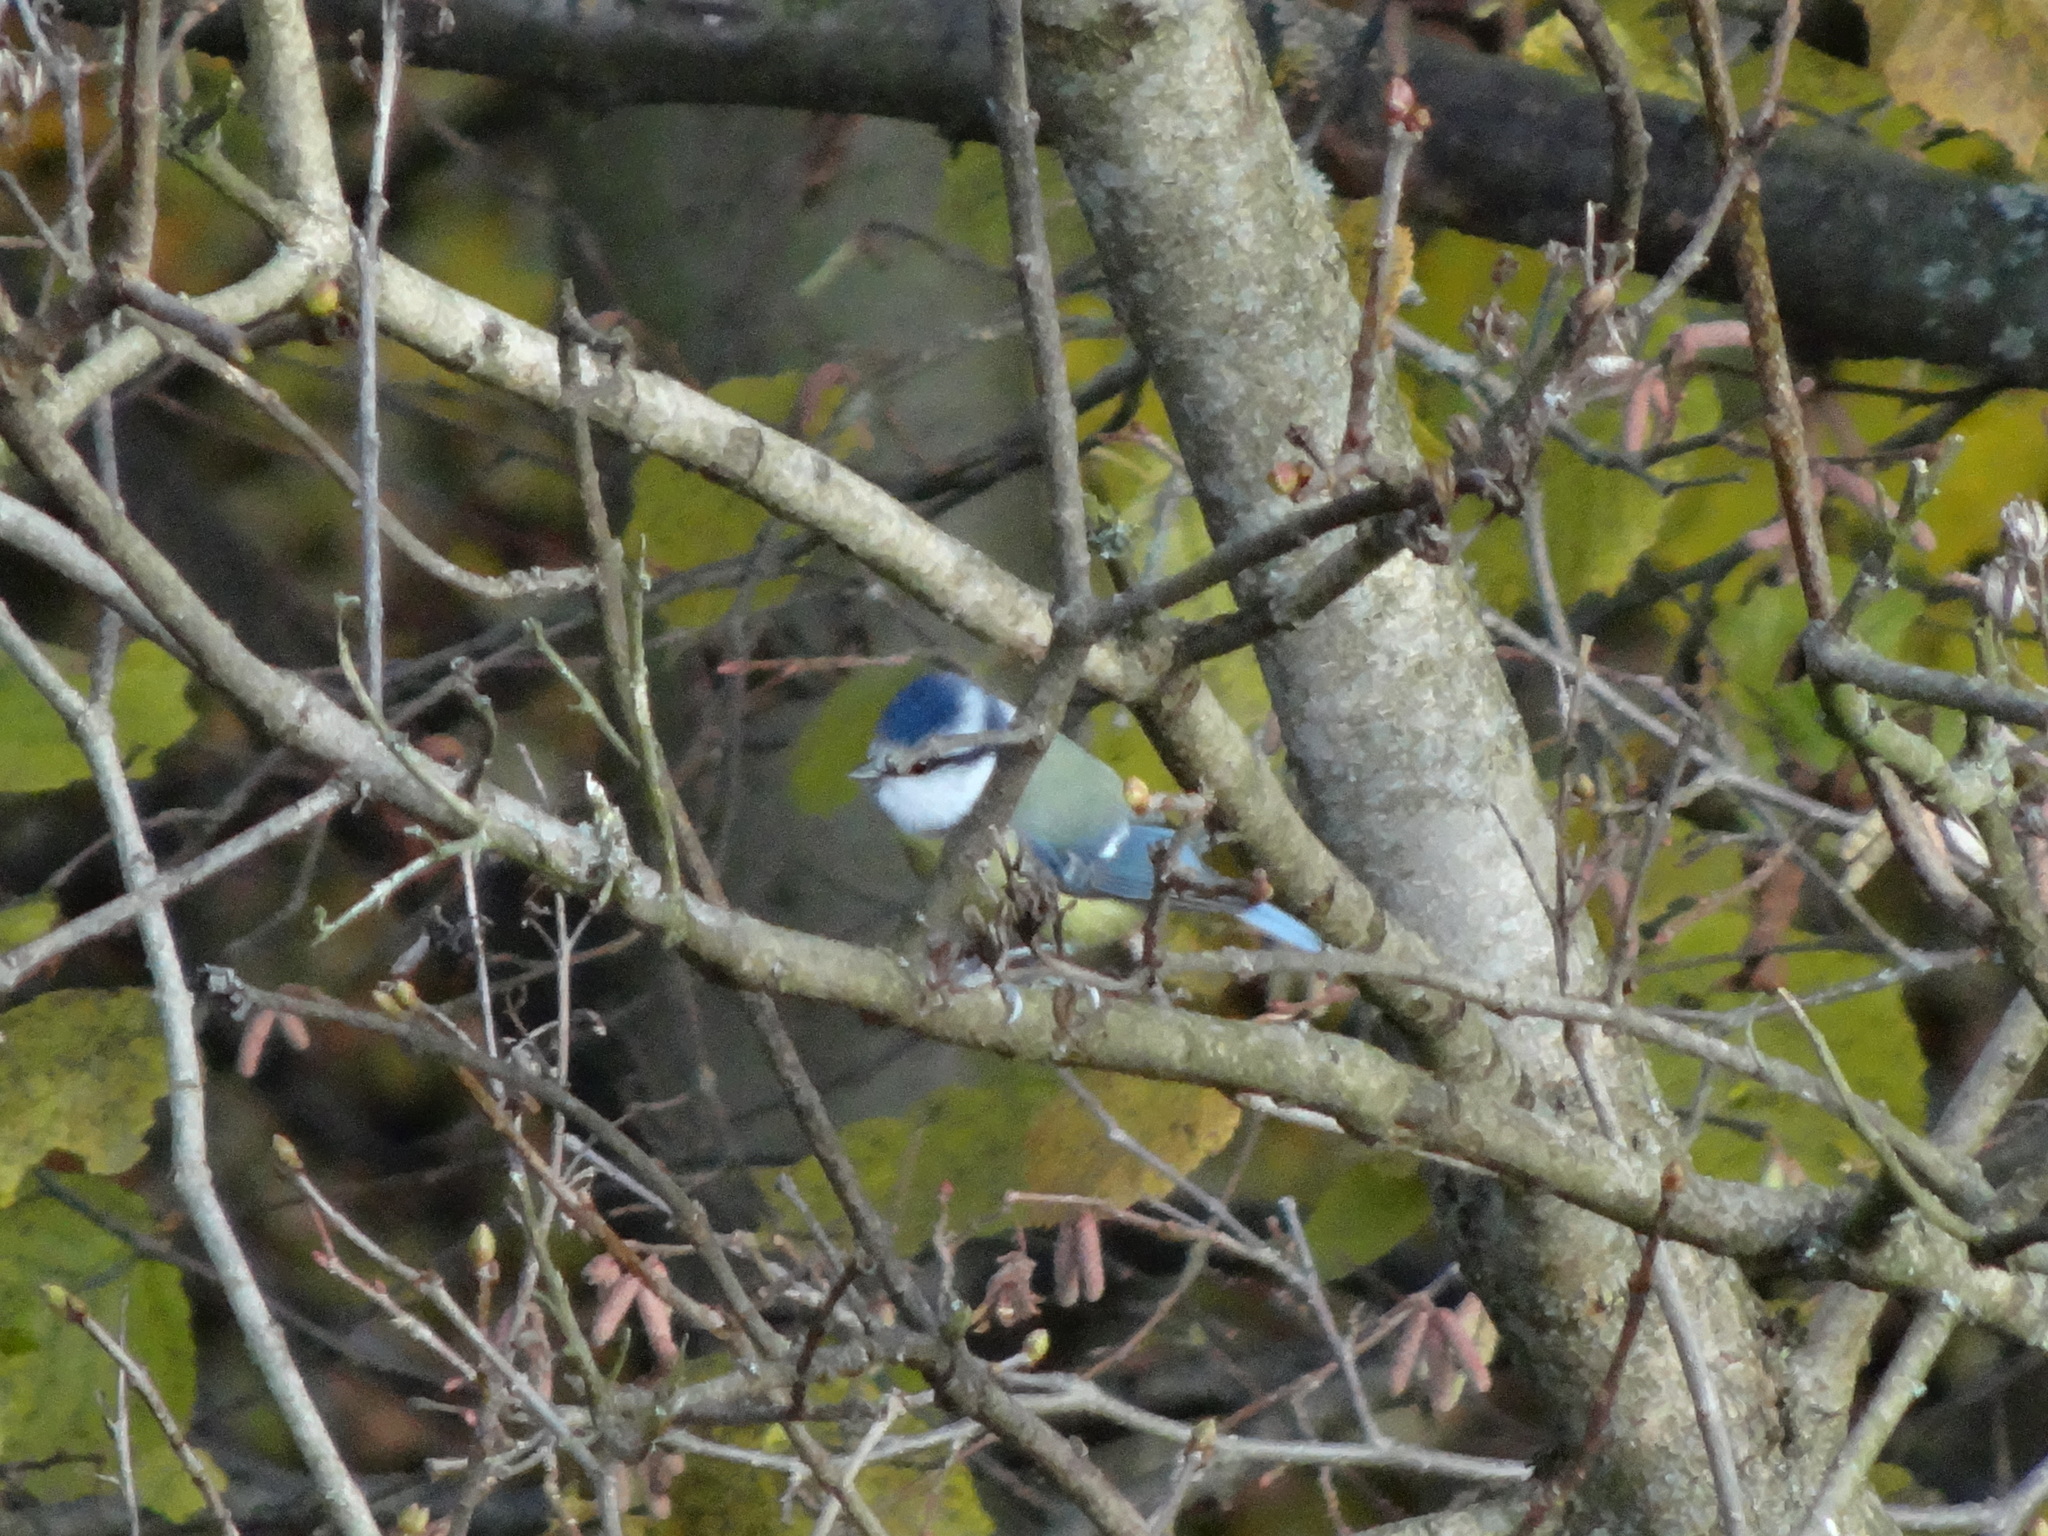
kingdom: Animalia
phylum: Chordata
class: Aves
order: Passeriformes
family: Paridae
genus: Cyanistes
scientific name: Cyanistes caeruleus
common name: Eurasian blue tit
